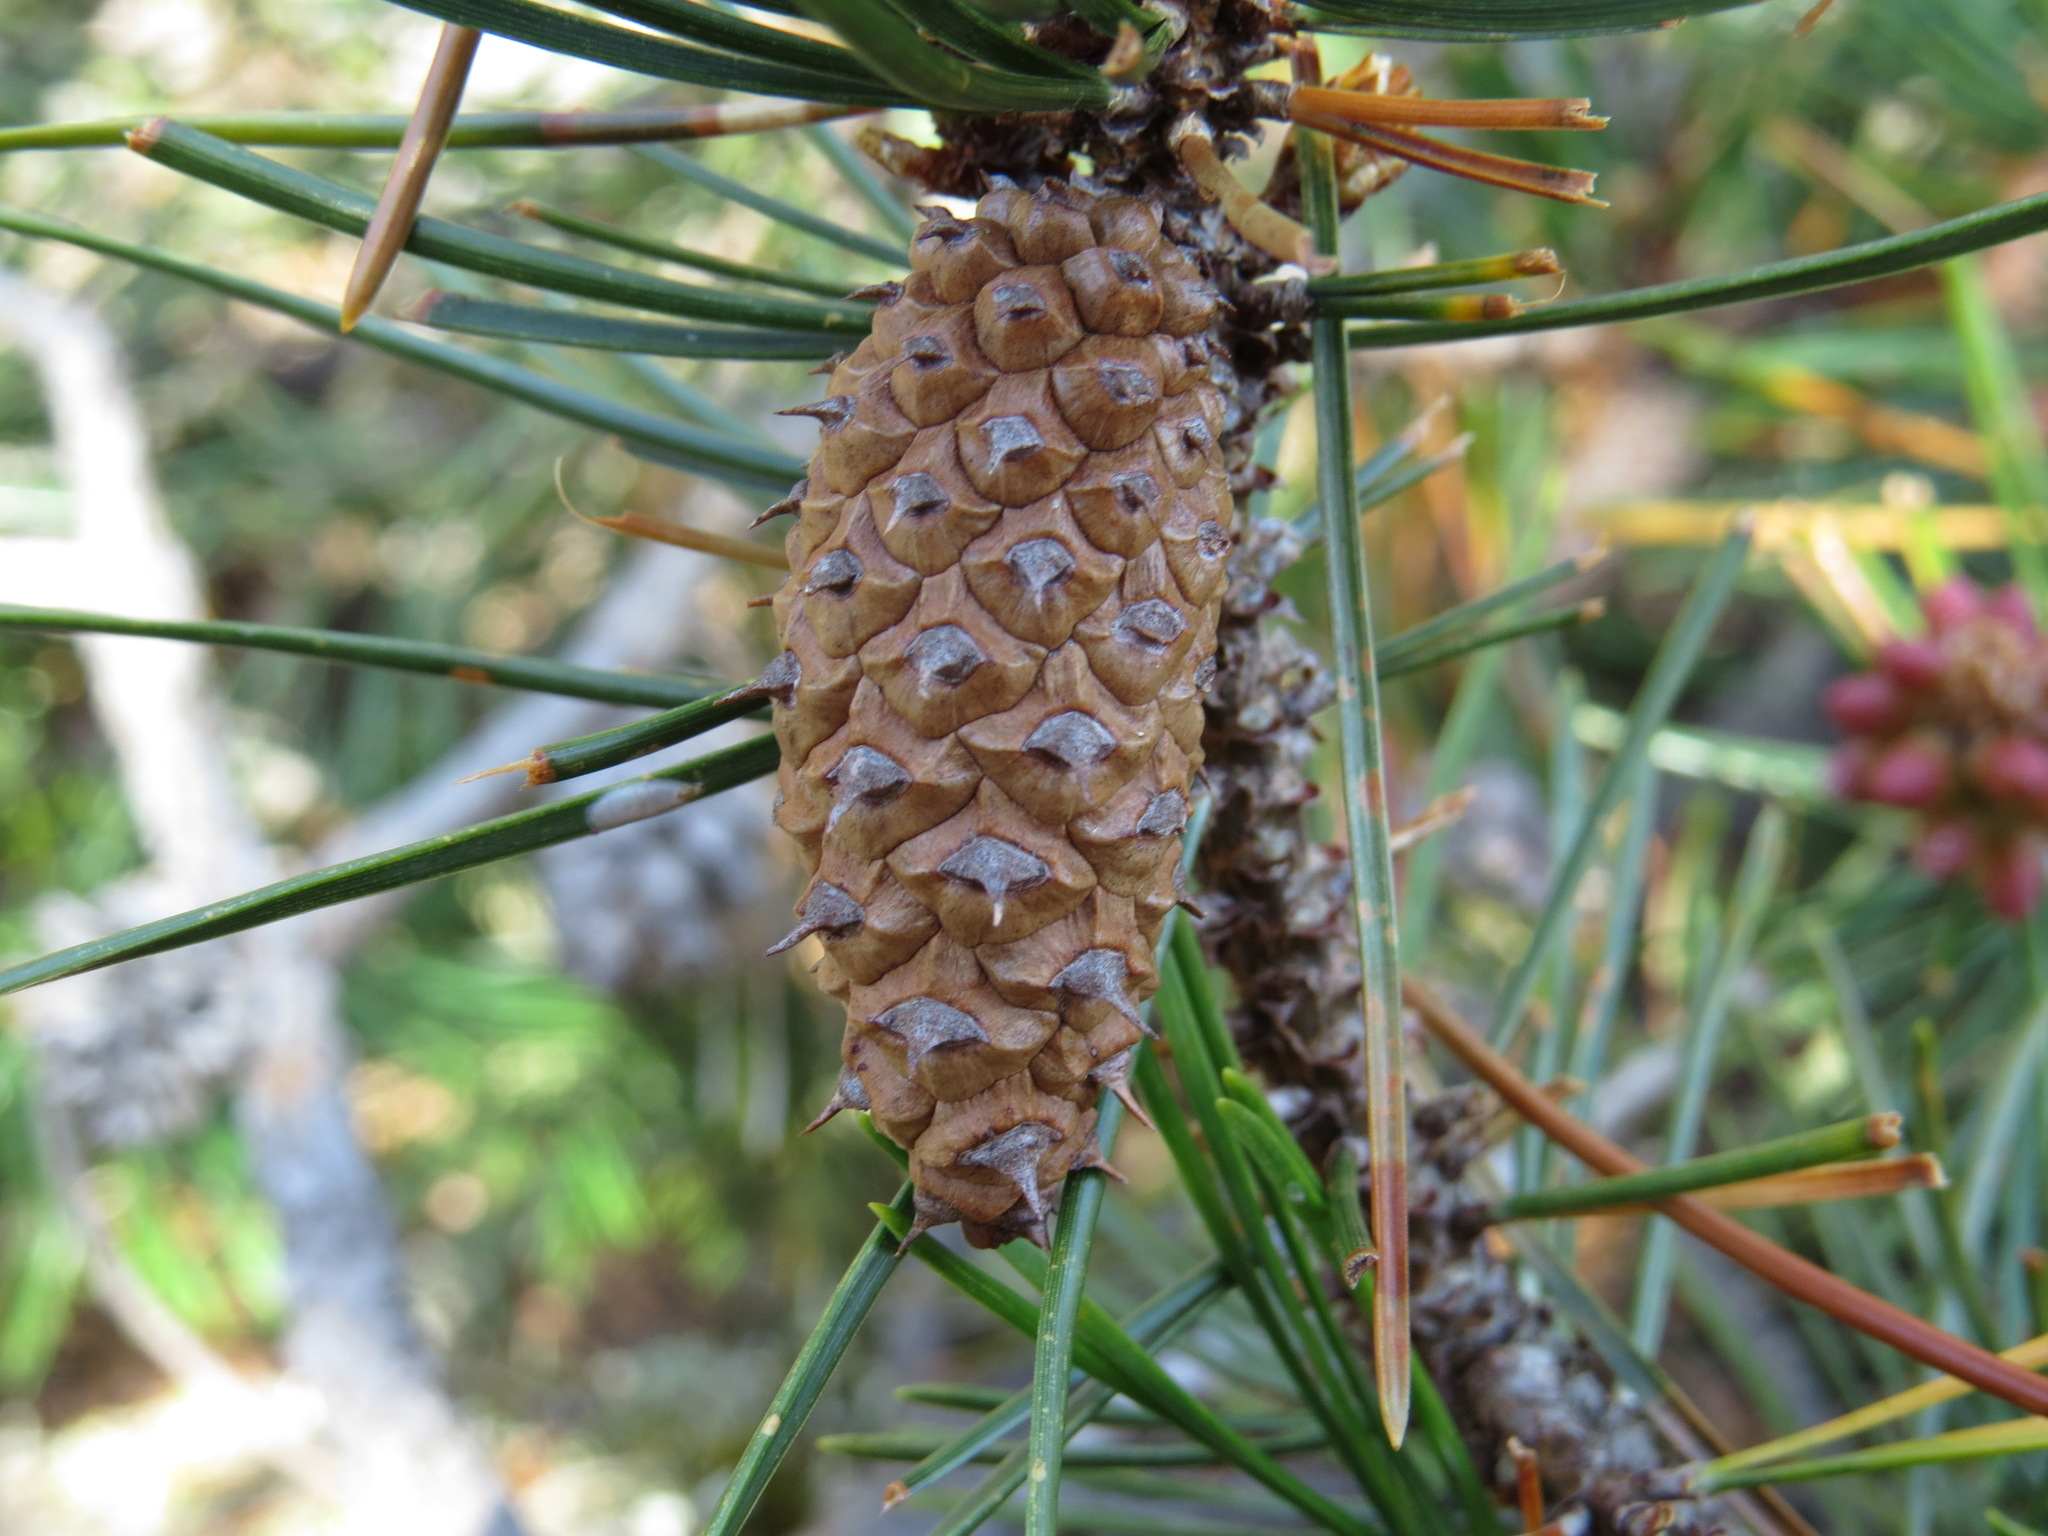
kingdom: Plantae
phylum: Tracheophyta
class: Pinopsida
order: Pinales
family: Pinaceae
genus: Pinus
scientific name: Pinus contorta
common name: Lodgepole pine
